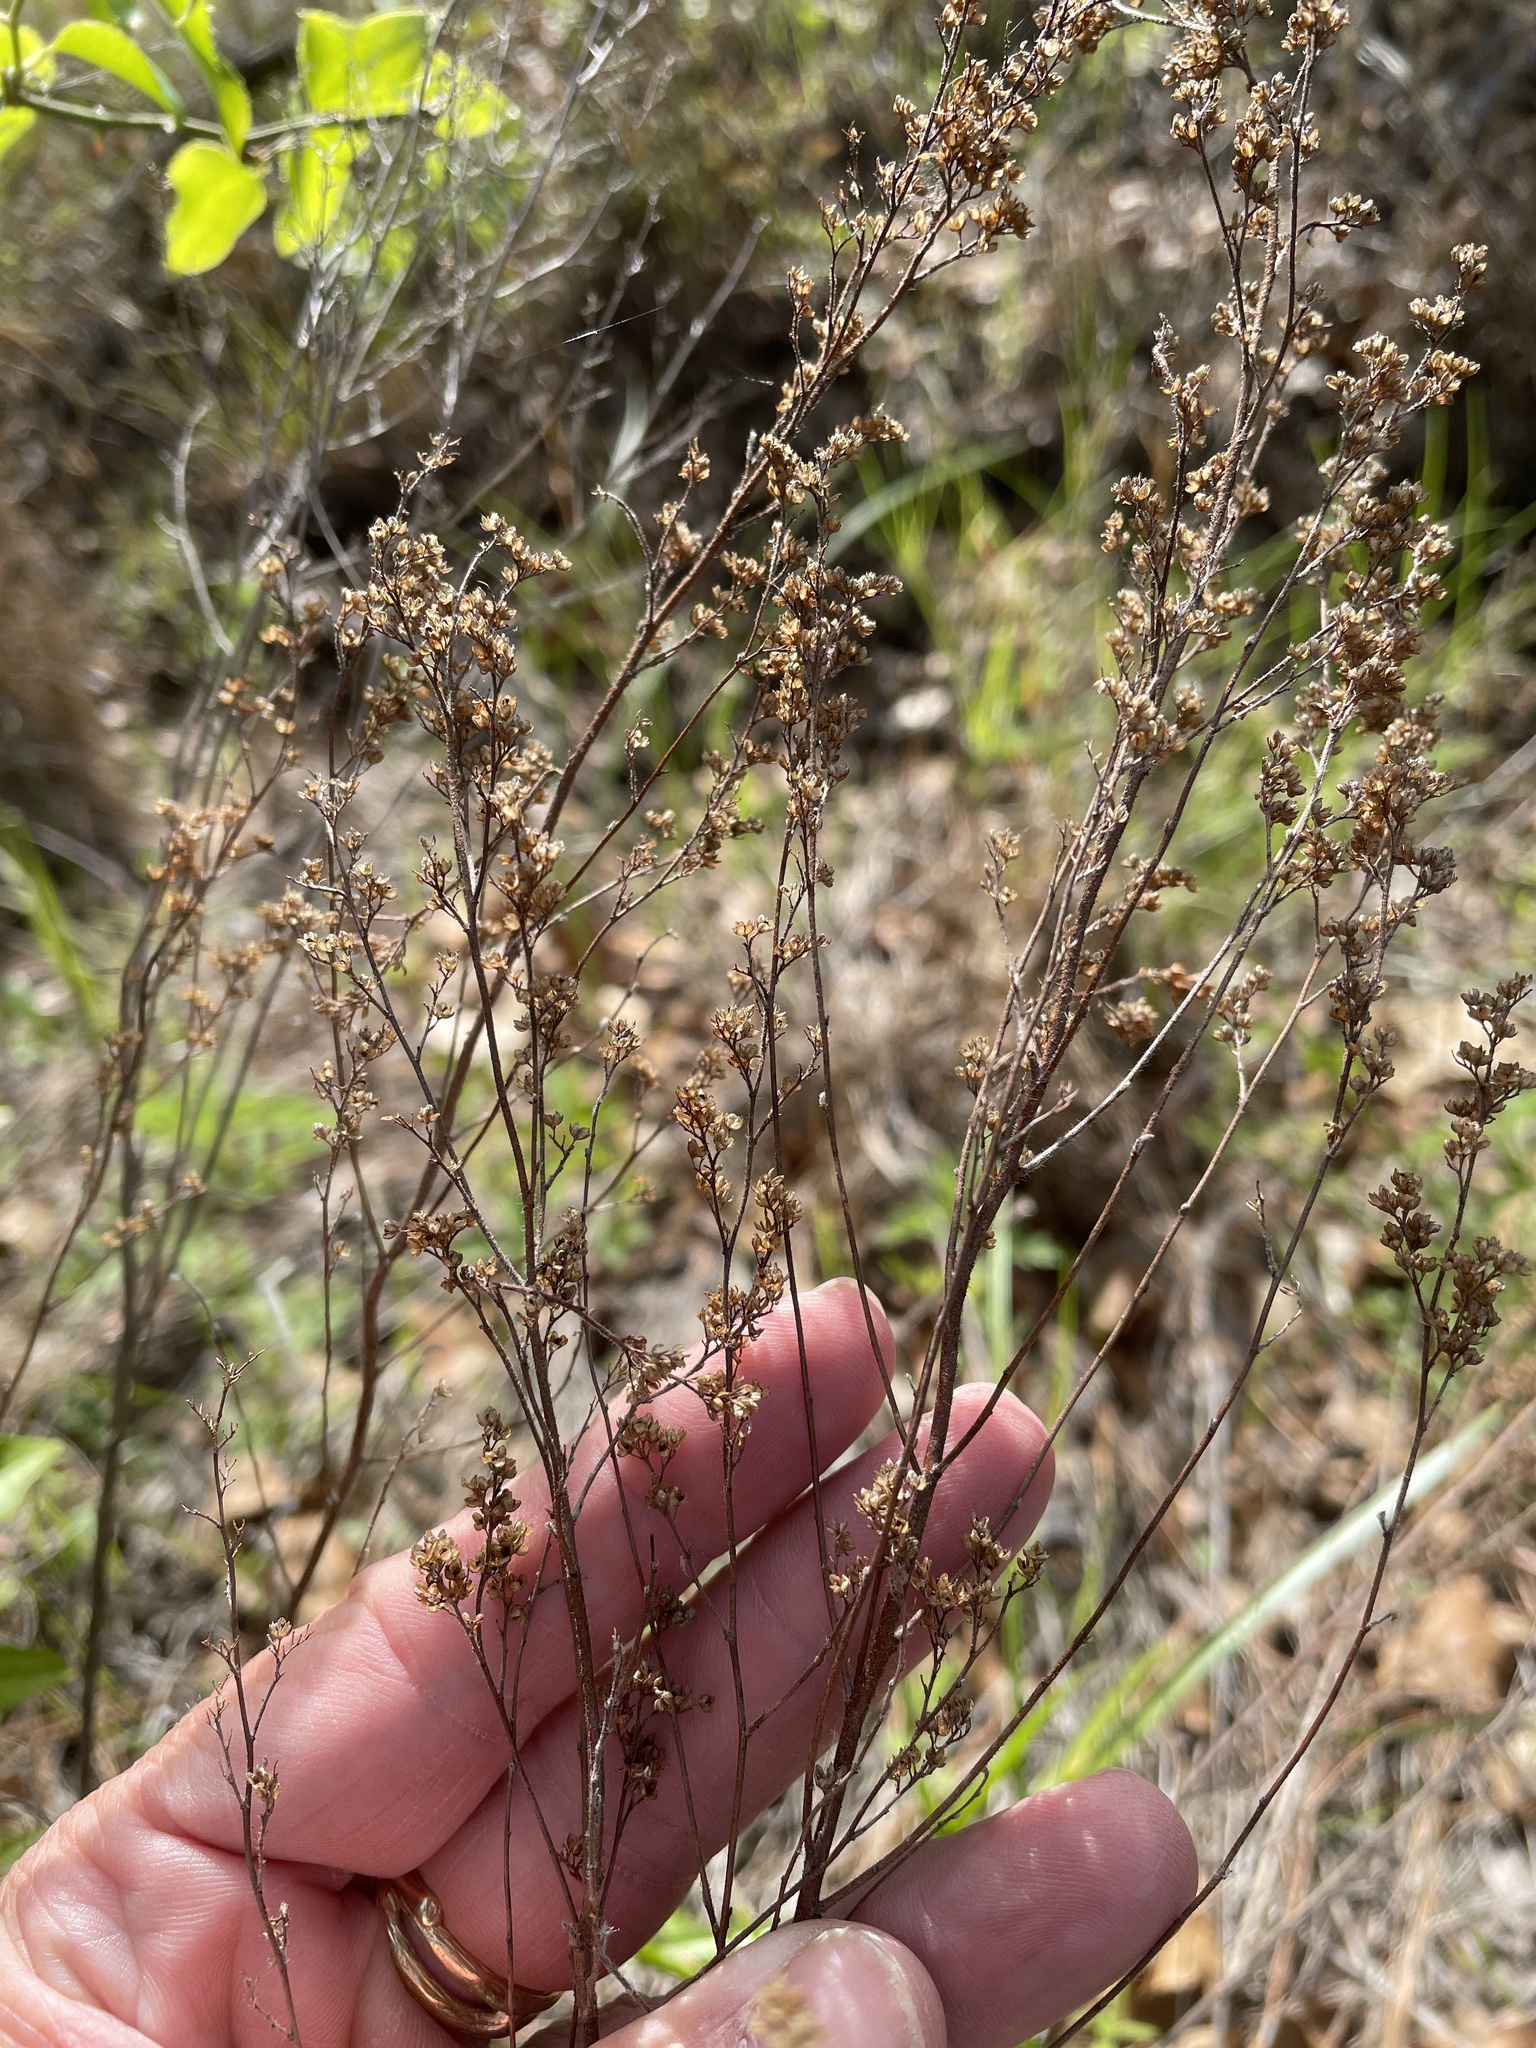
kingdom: Plantae
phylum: Tracheophyta
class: Magnoliopsida
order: Malvales
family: Cistaceae
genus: Lechea
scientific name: Lechea mucronata
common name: Hairy pinweed
